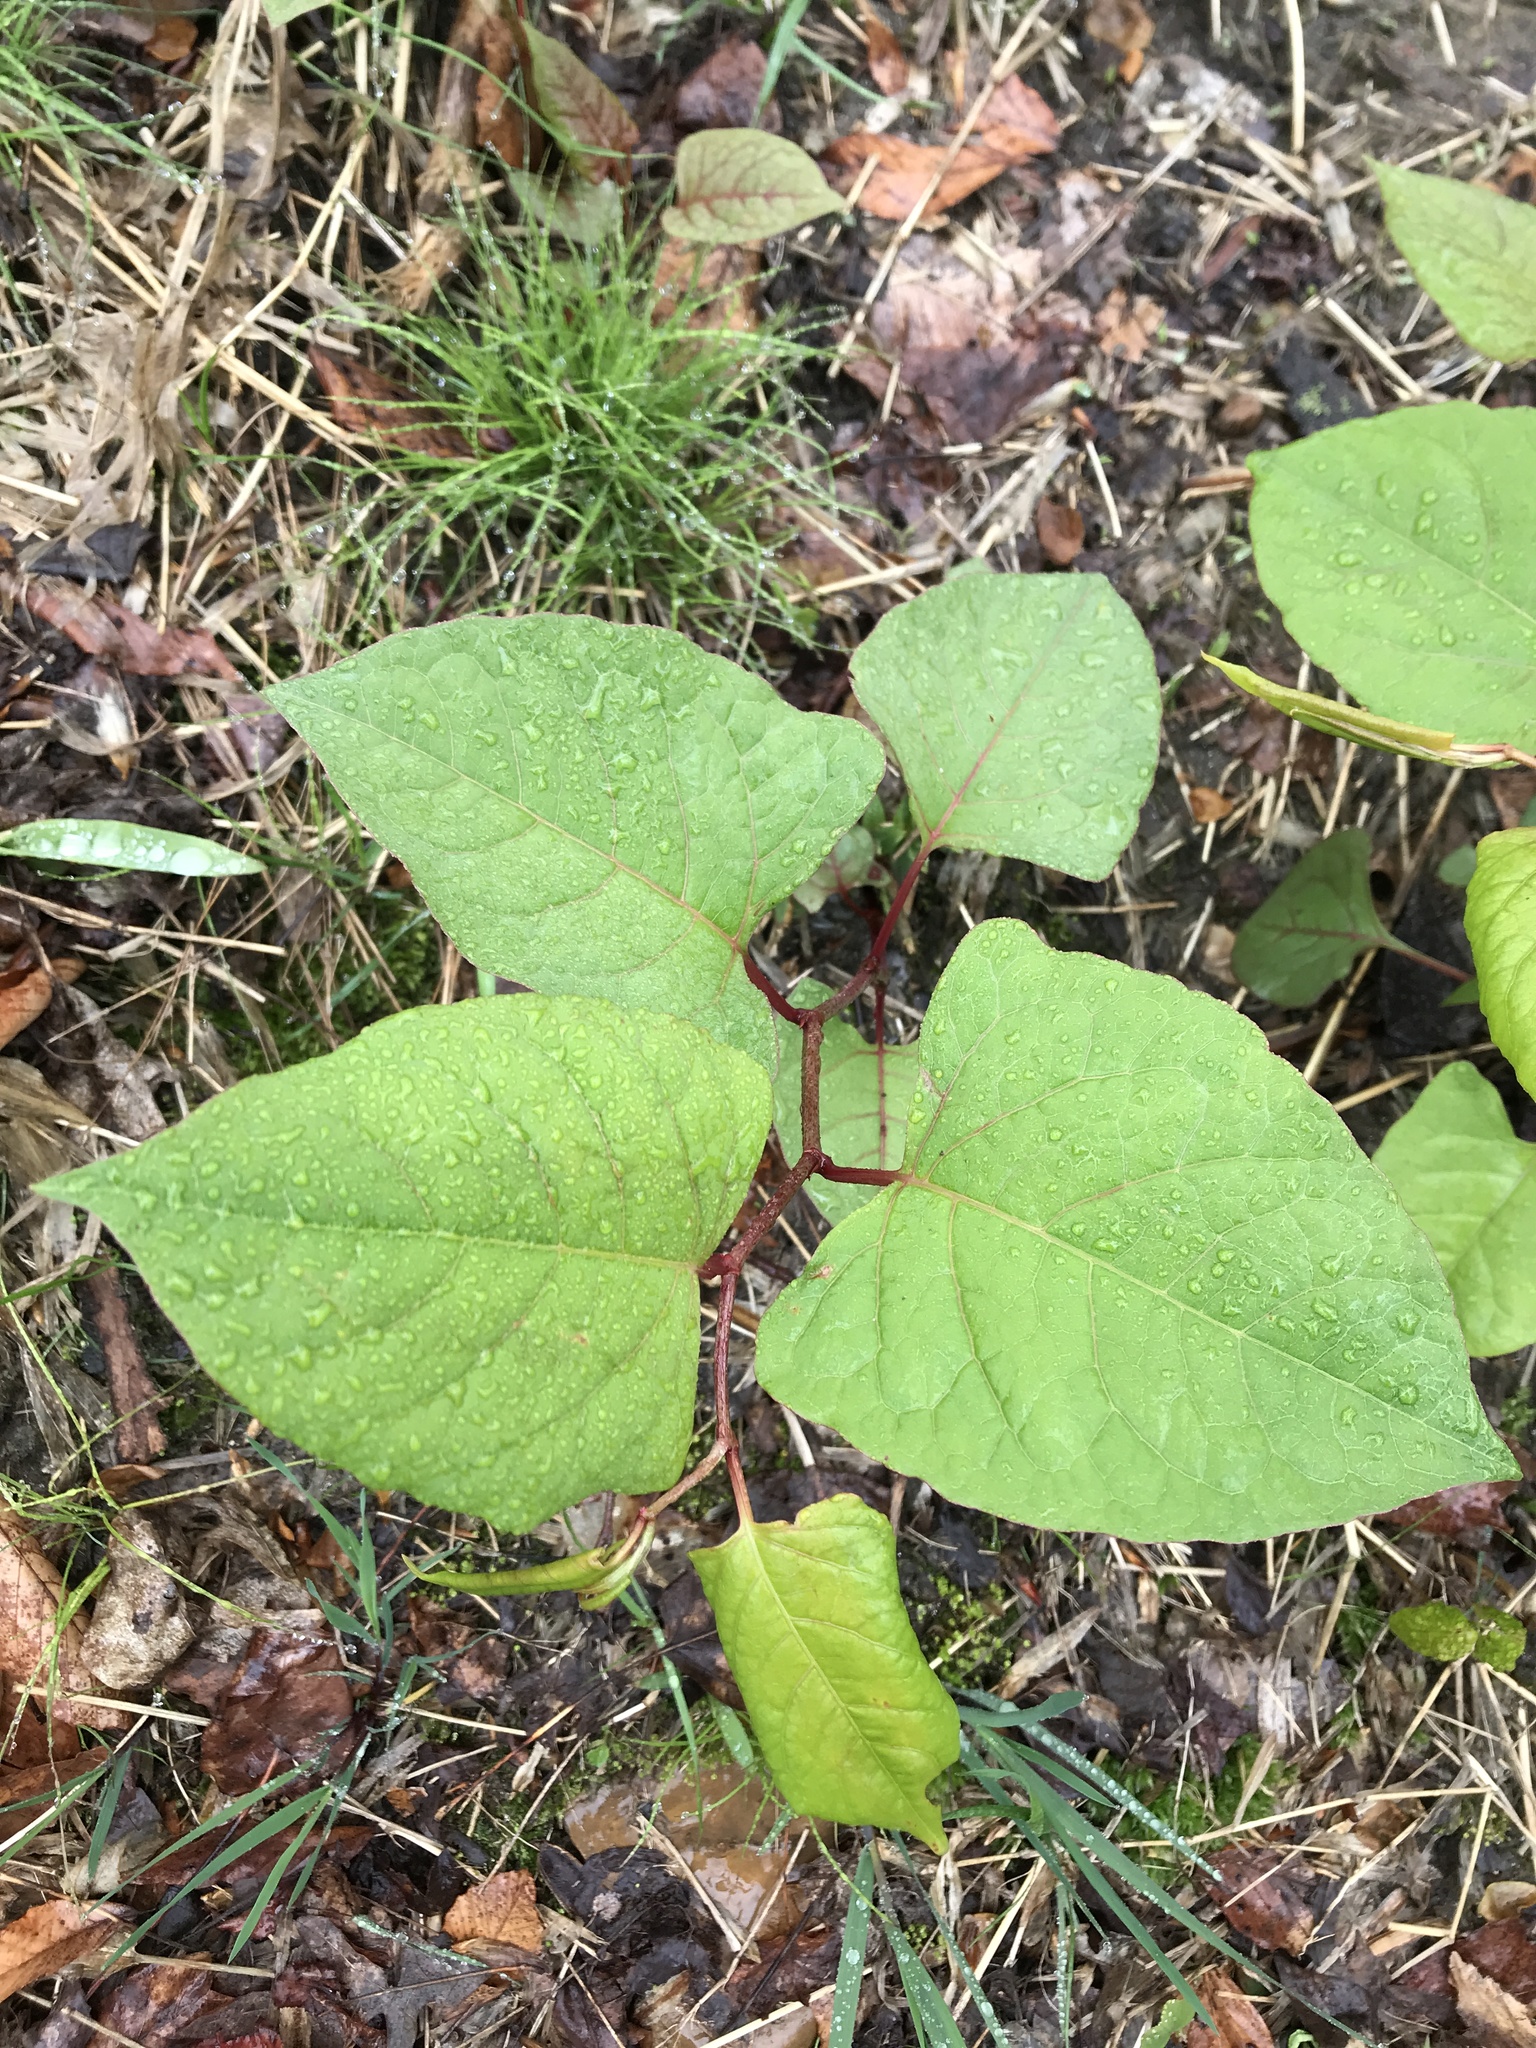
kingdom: Plantae
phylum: Tracheophyta
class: Magnoliopsida
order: Caryophyllales
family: Polygonaceae
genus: Reynoutria
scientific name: Reynoutria japonica
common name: Japanese knotweed
